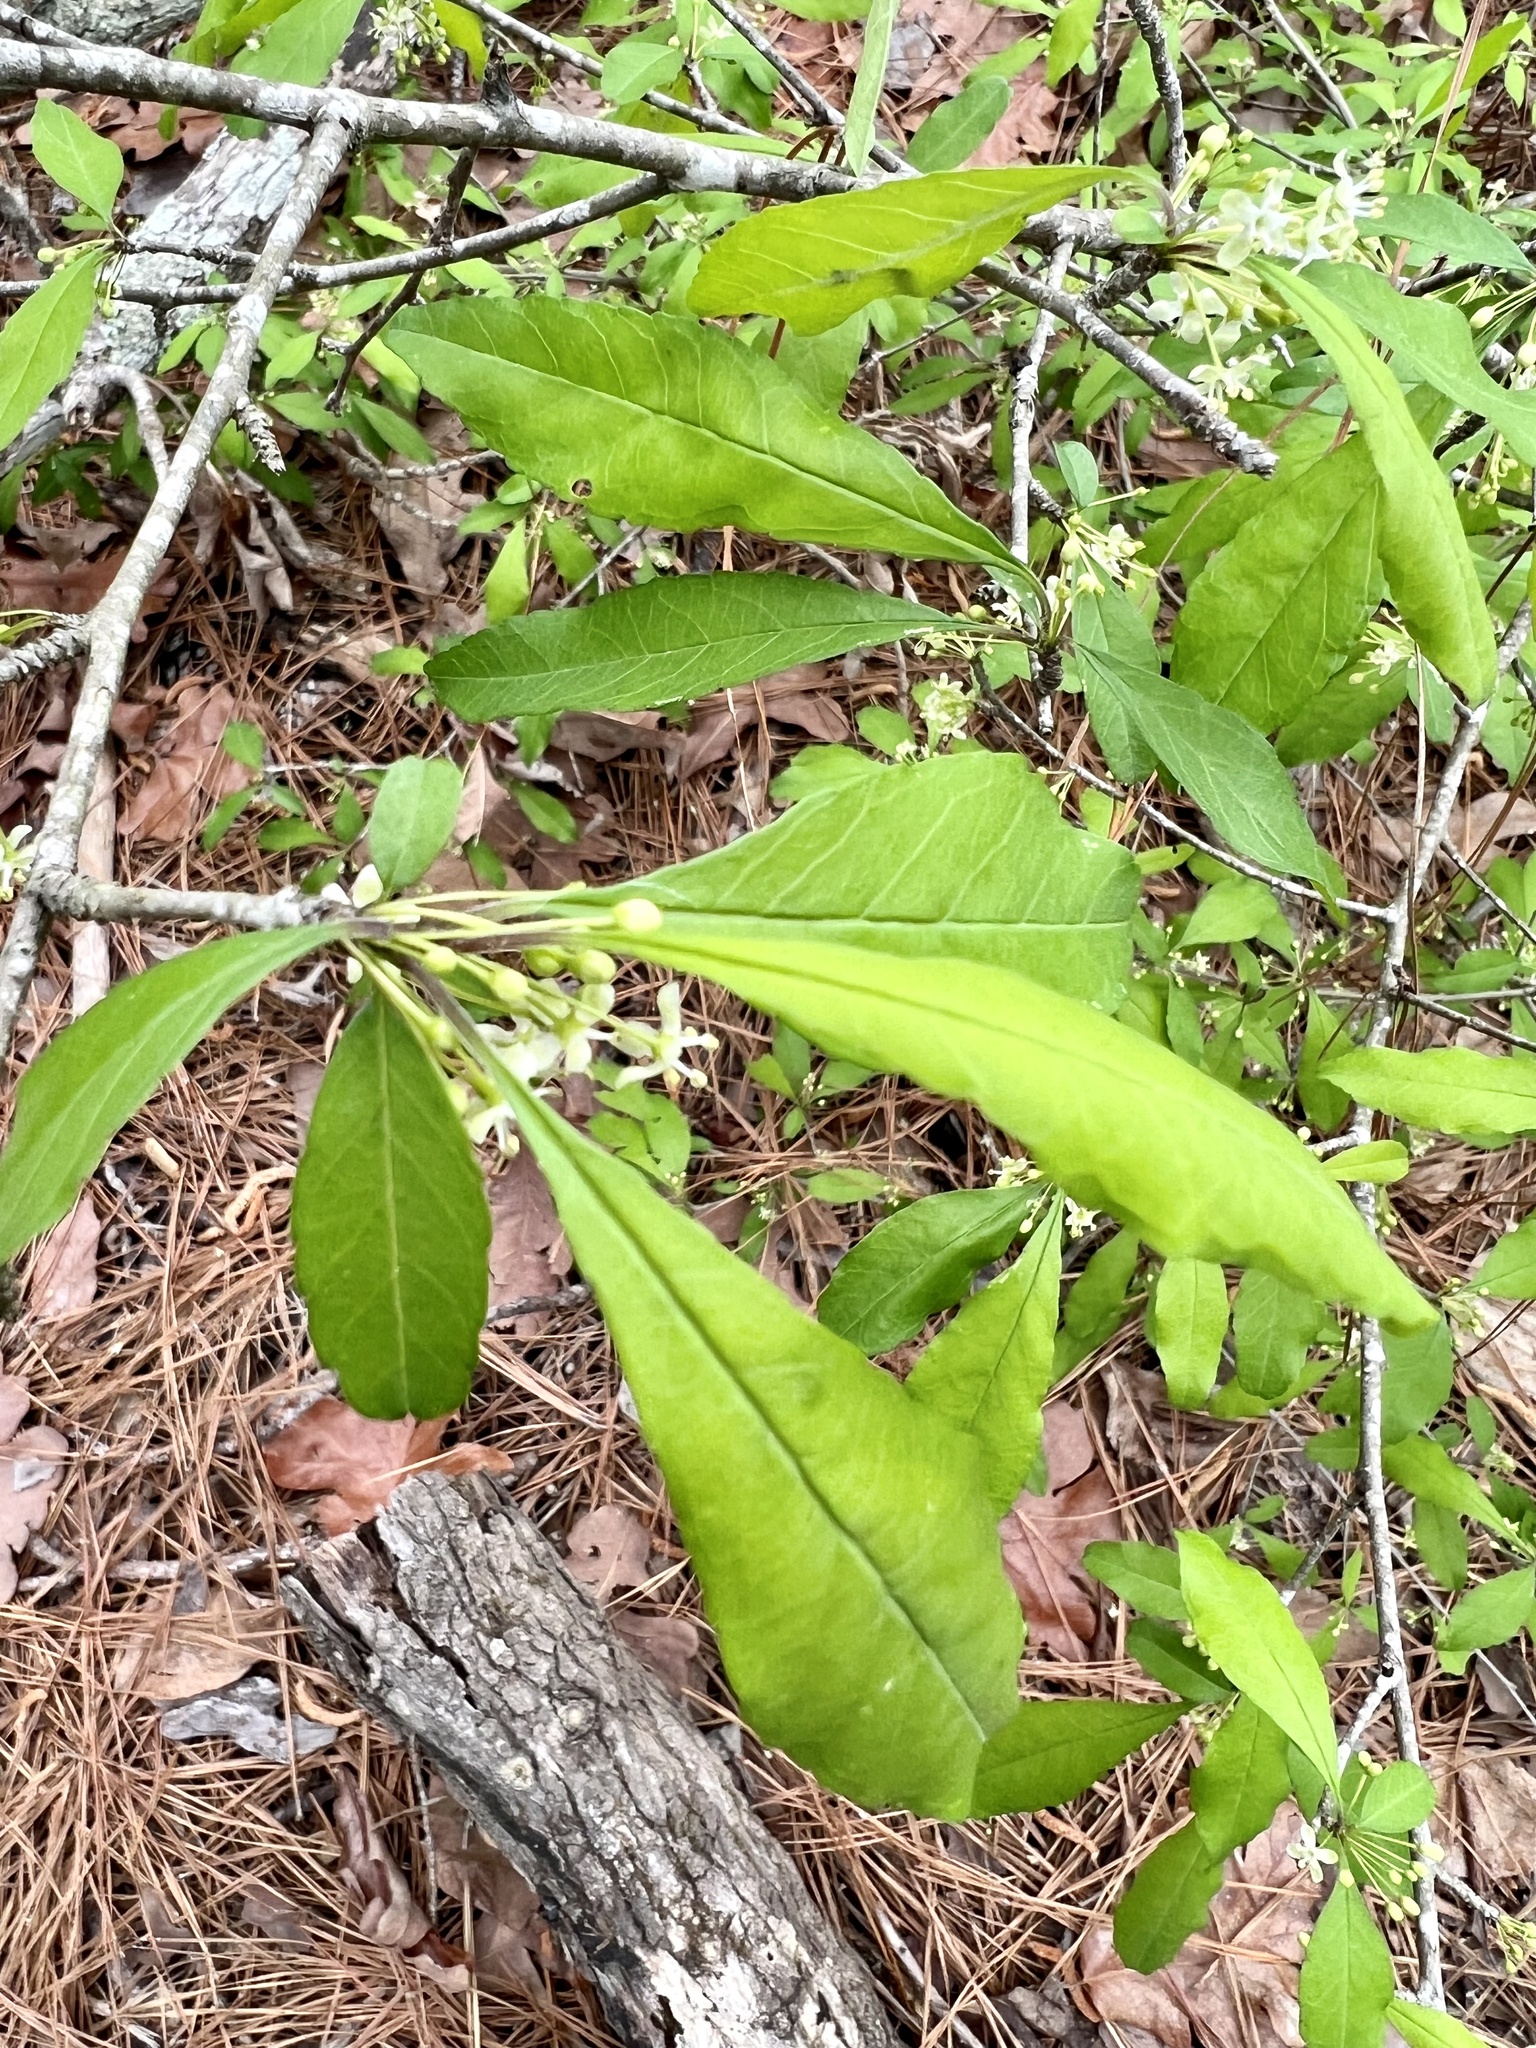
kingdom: Plantae
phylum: Tracheophyta
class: Magnoliopsida
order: Aquifoliales
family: Aquifoliaceae
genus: Ilex
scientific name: Ilex decidua
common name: Possum-haw
